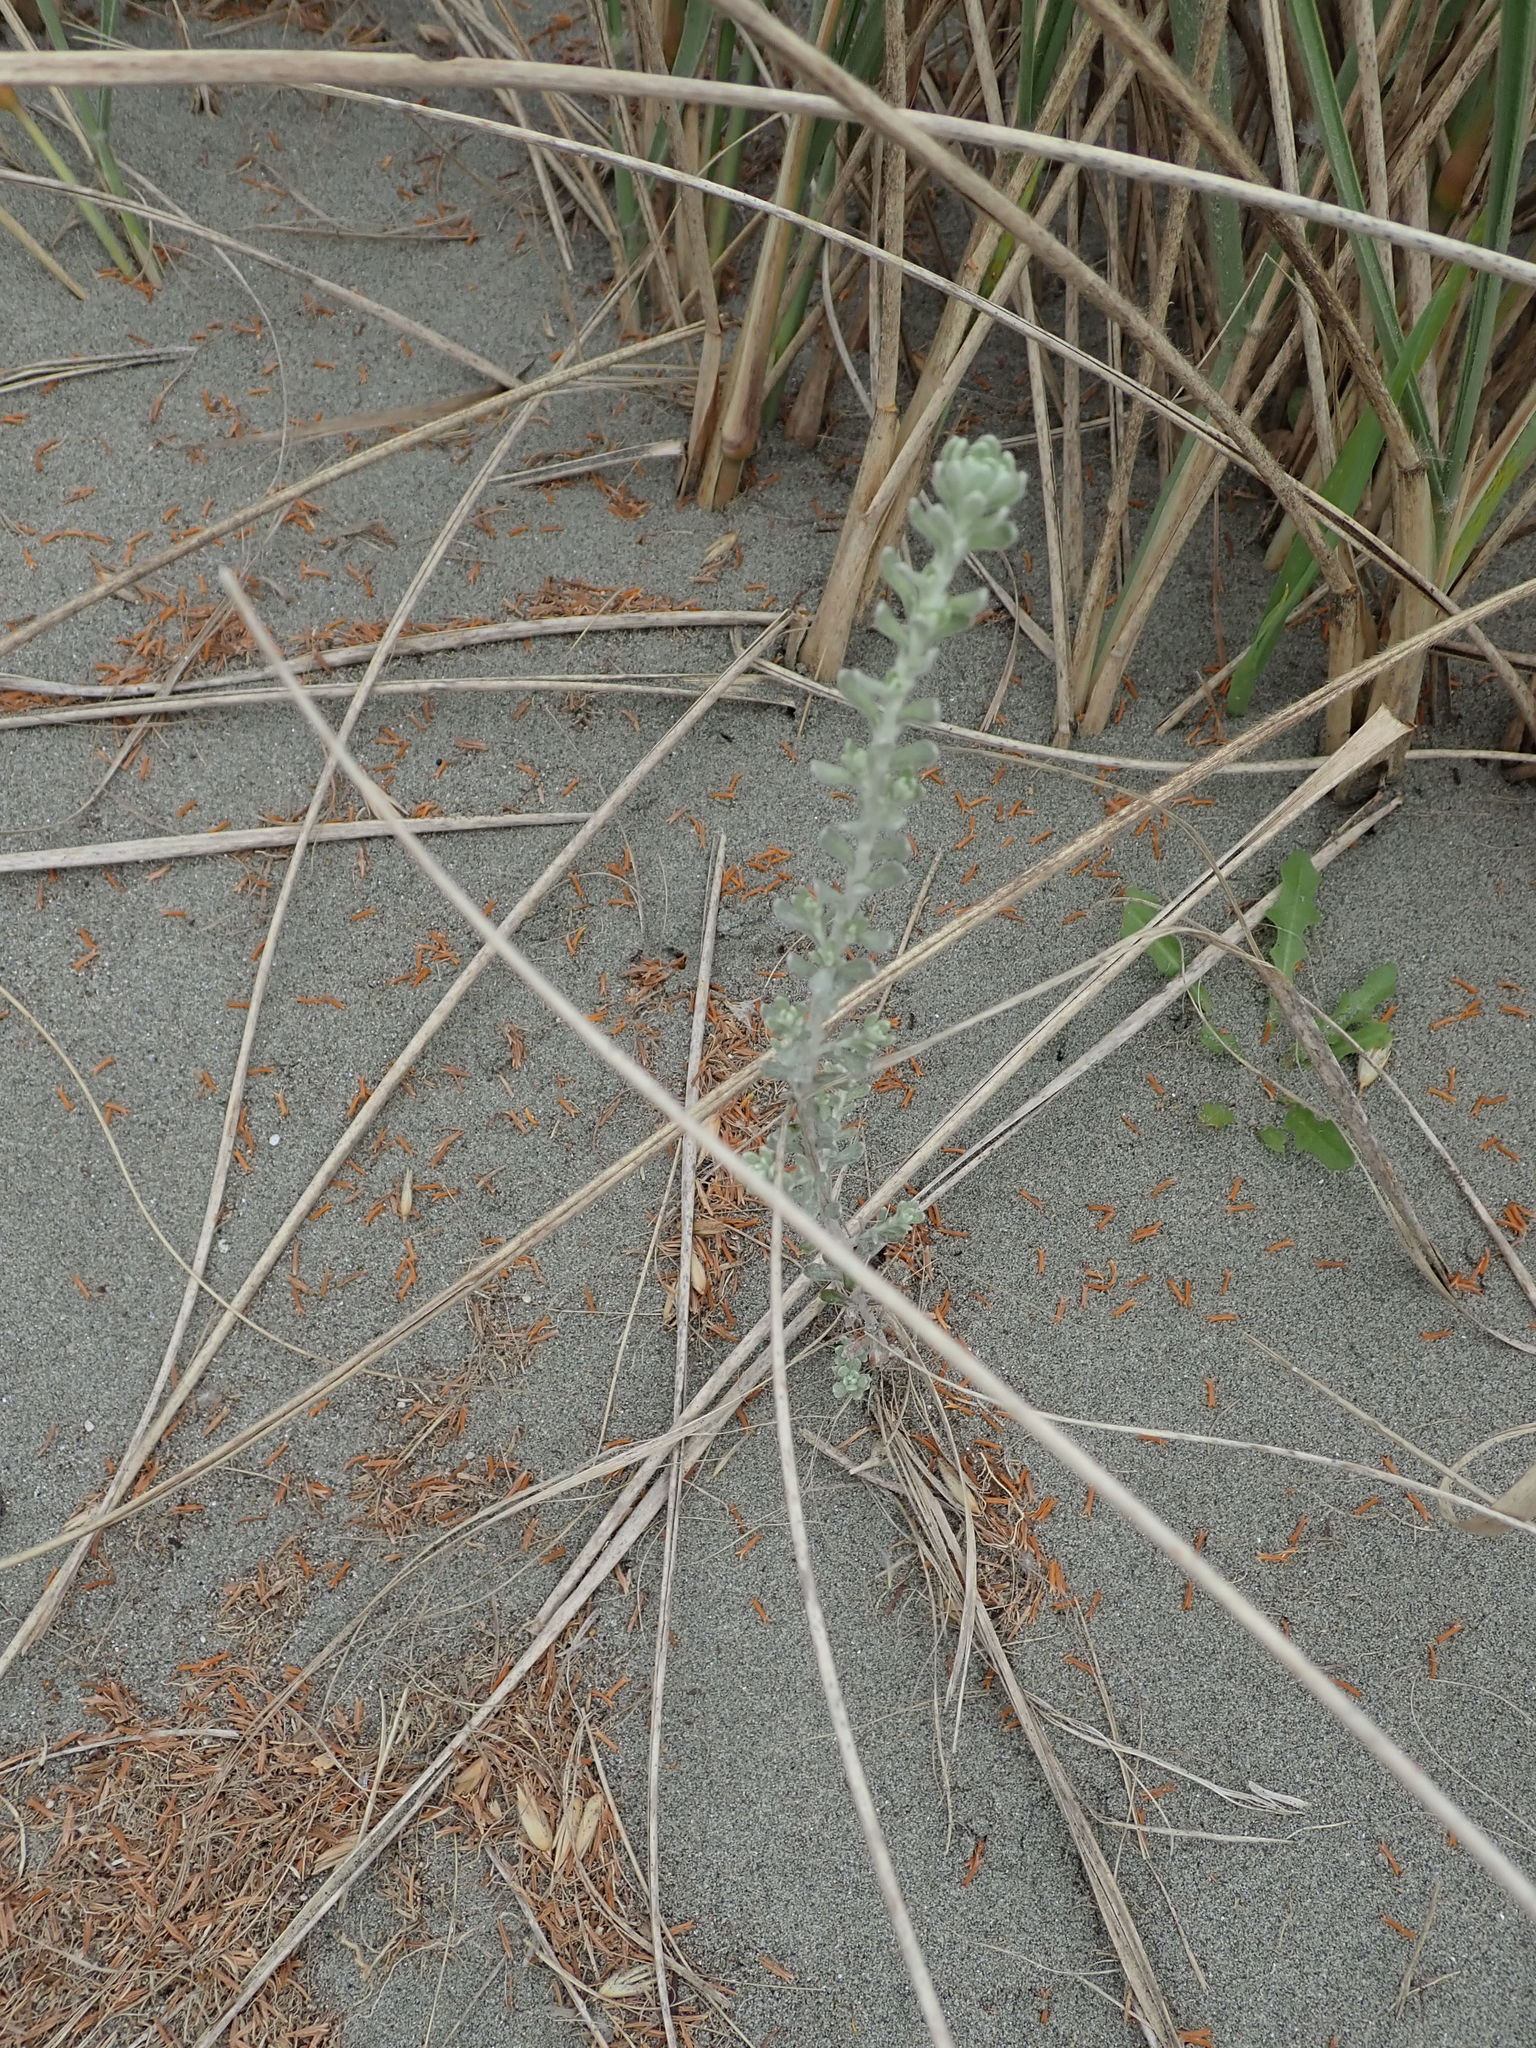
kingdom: Plantae
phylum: Tracheophyta
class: Magnoliopsida
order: Asterales
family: Asteraceae
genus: Ozothamnus
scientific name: Ozothamnus leptophyllus
